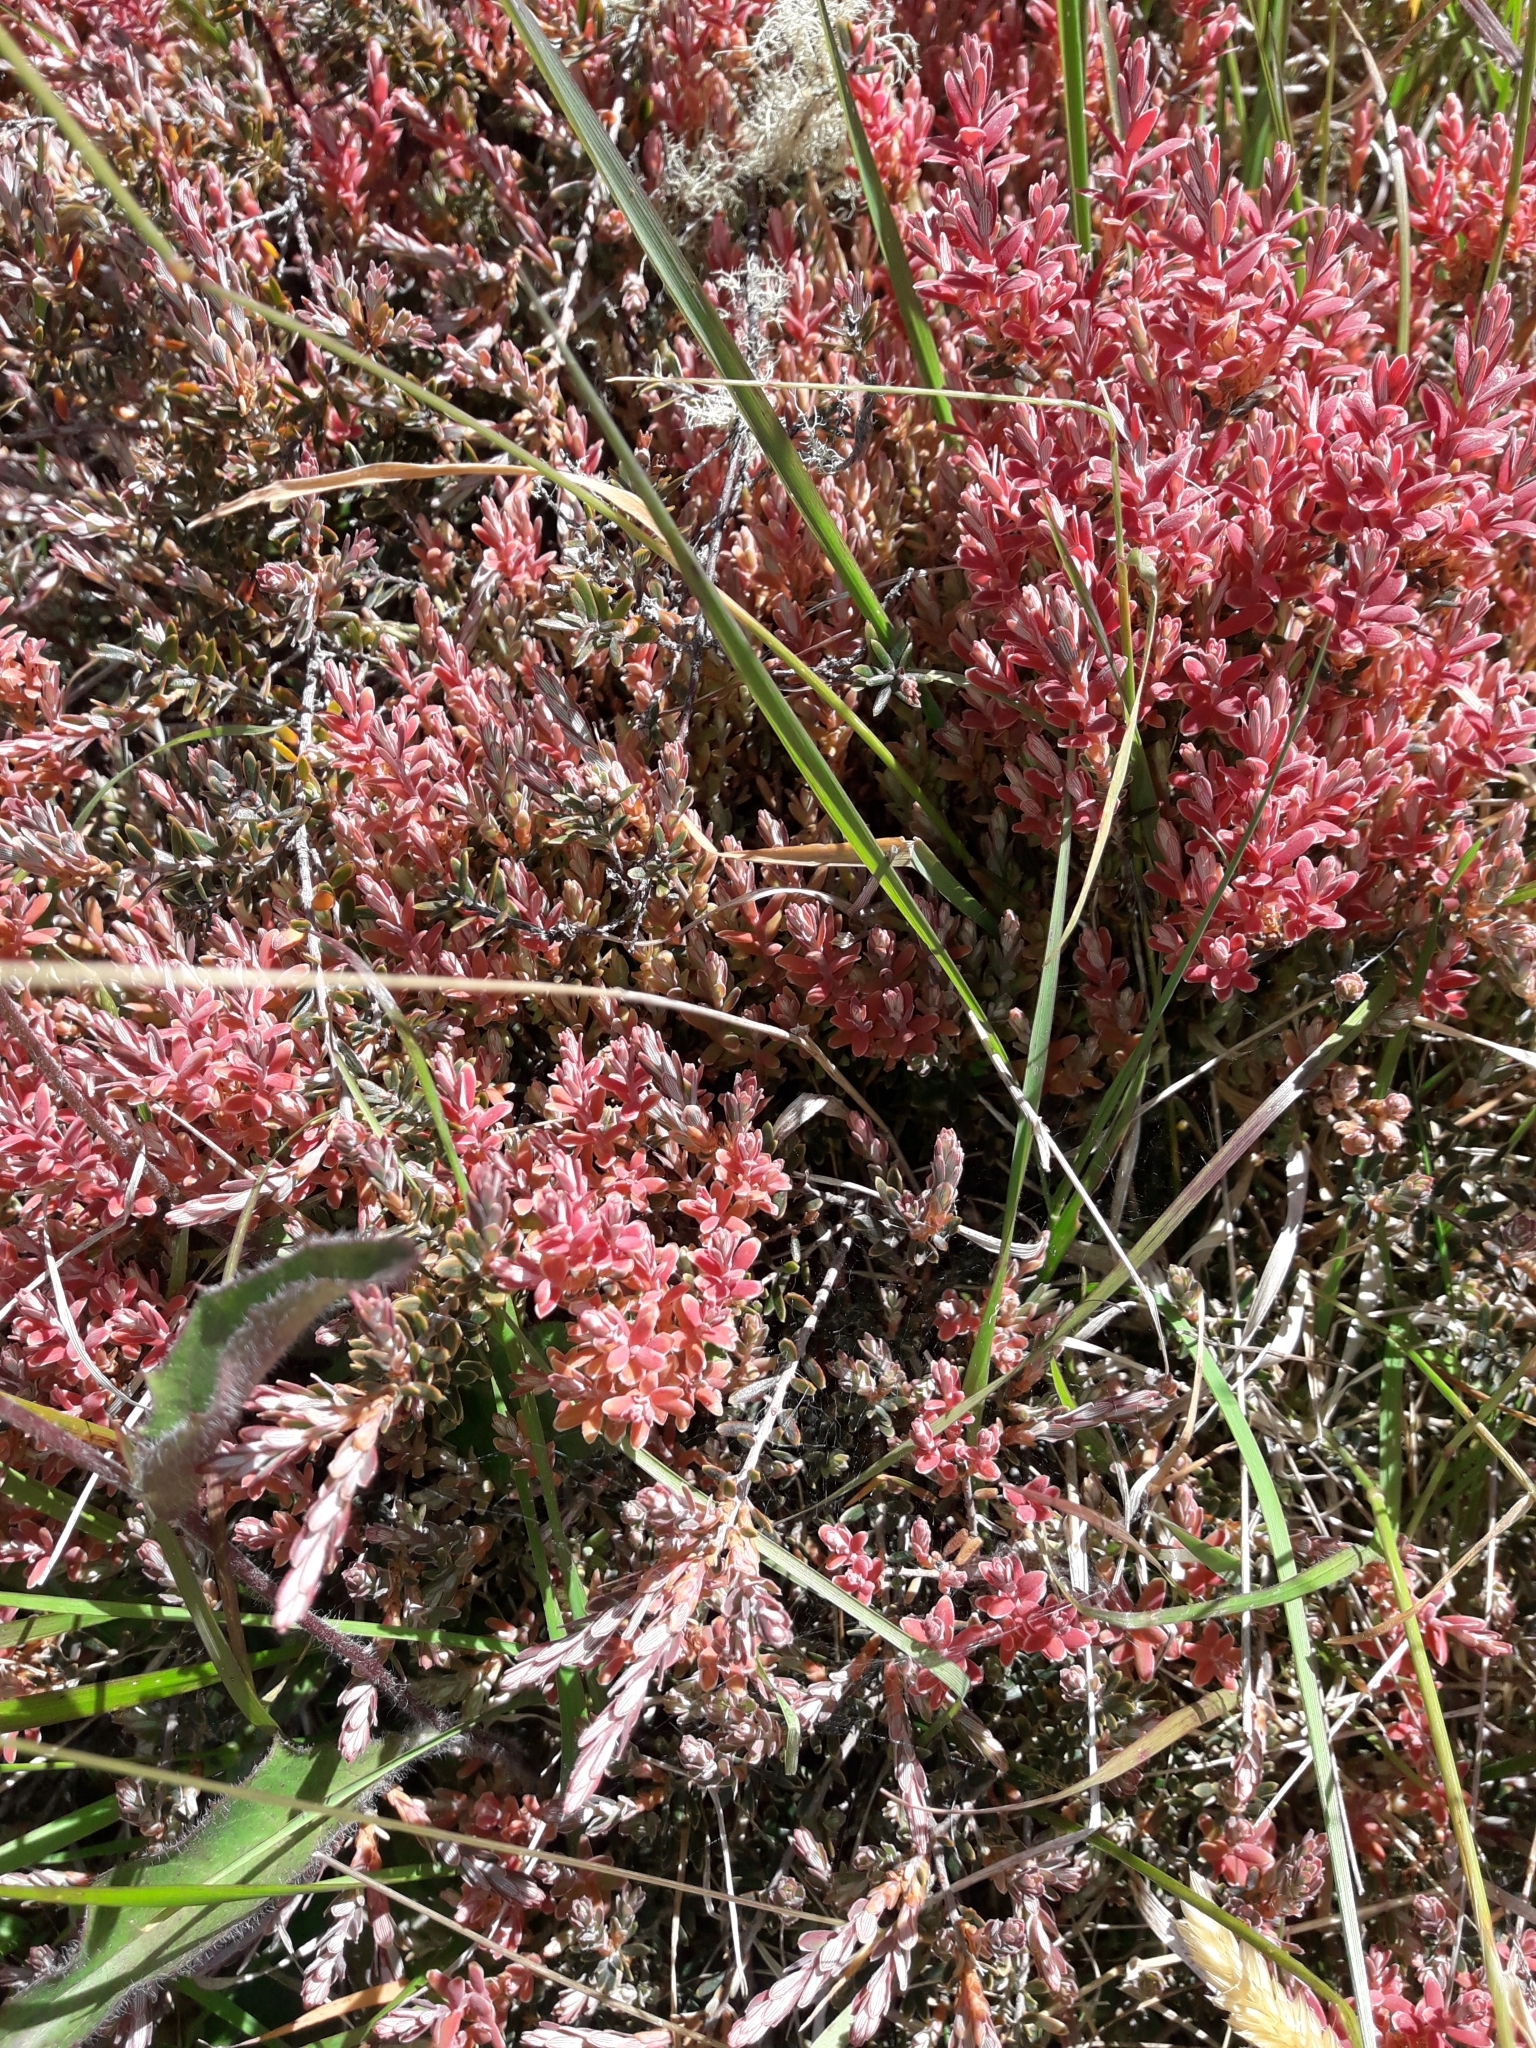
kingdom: Plantae
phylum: Tracheophyta
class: Magnoliopsida
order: Ericales
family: Ericaceae
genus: Acrothamnus
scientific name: Acrothamnus colensoi
